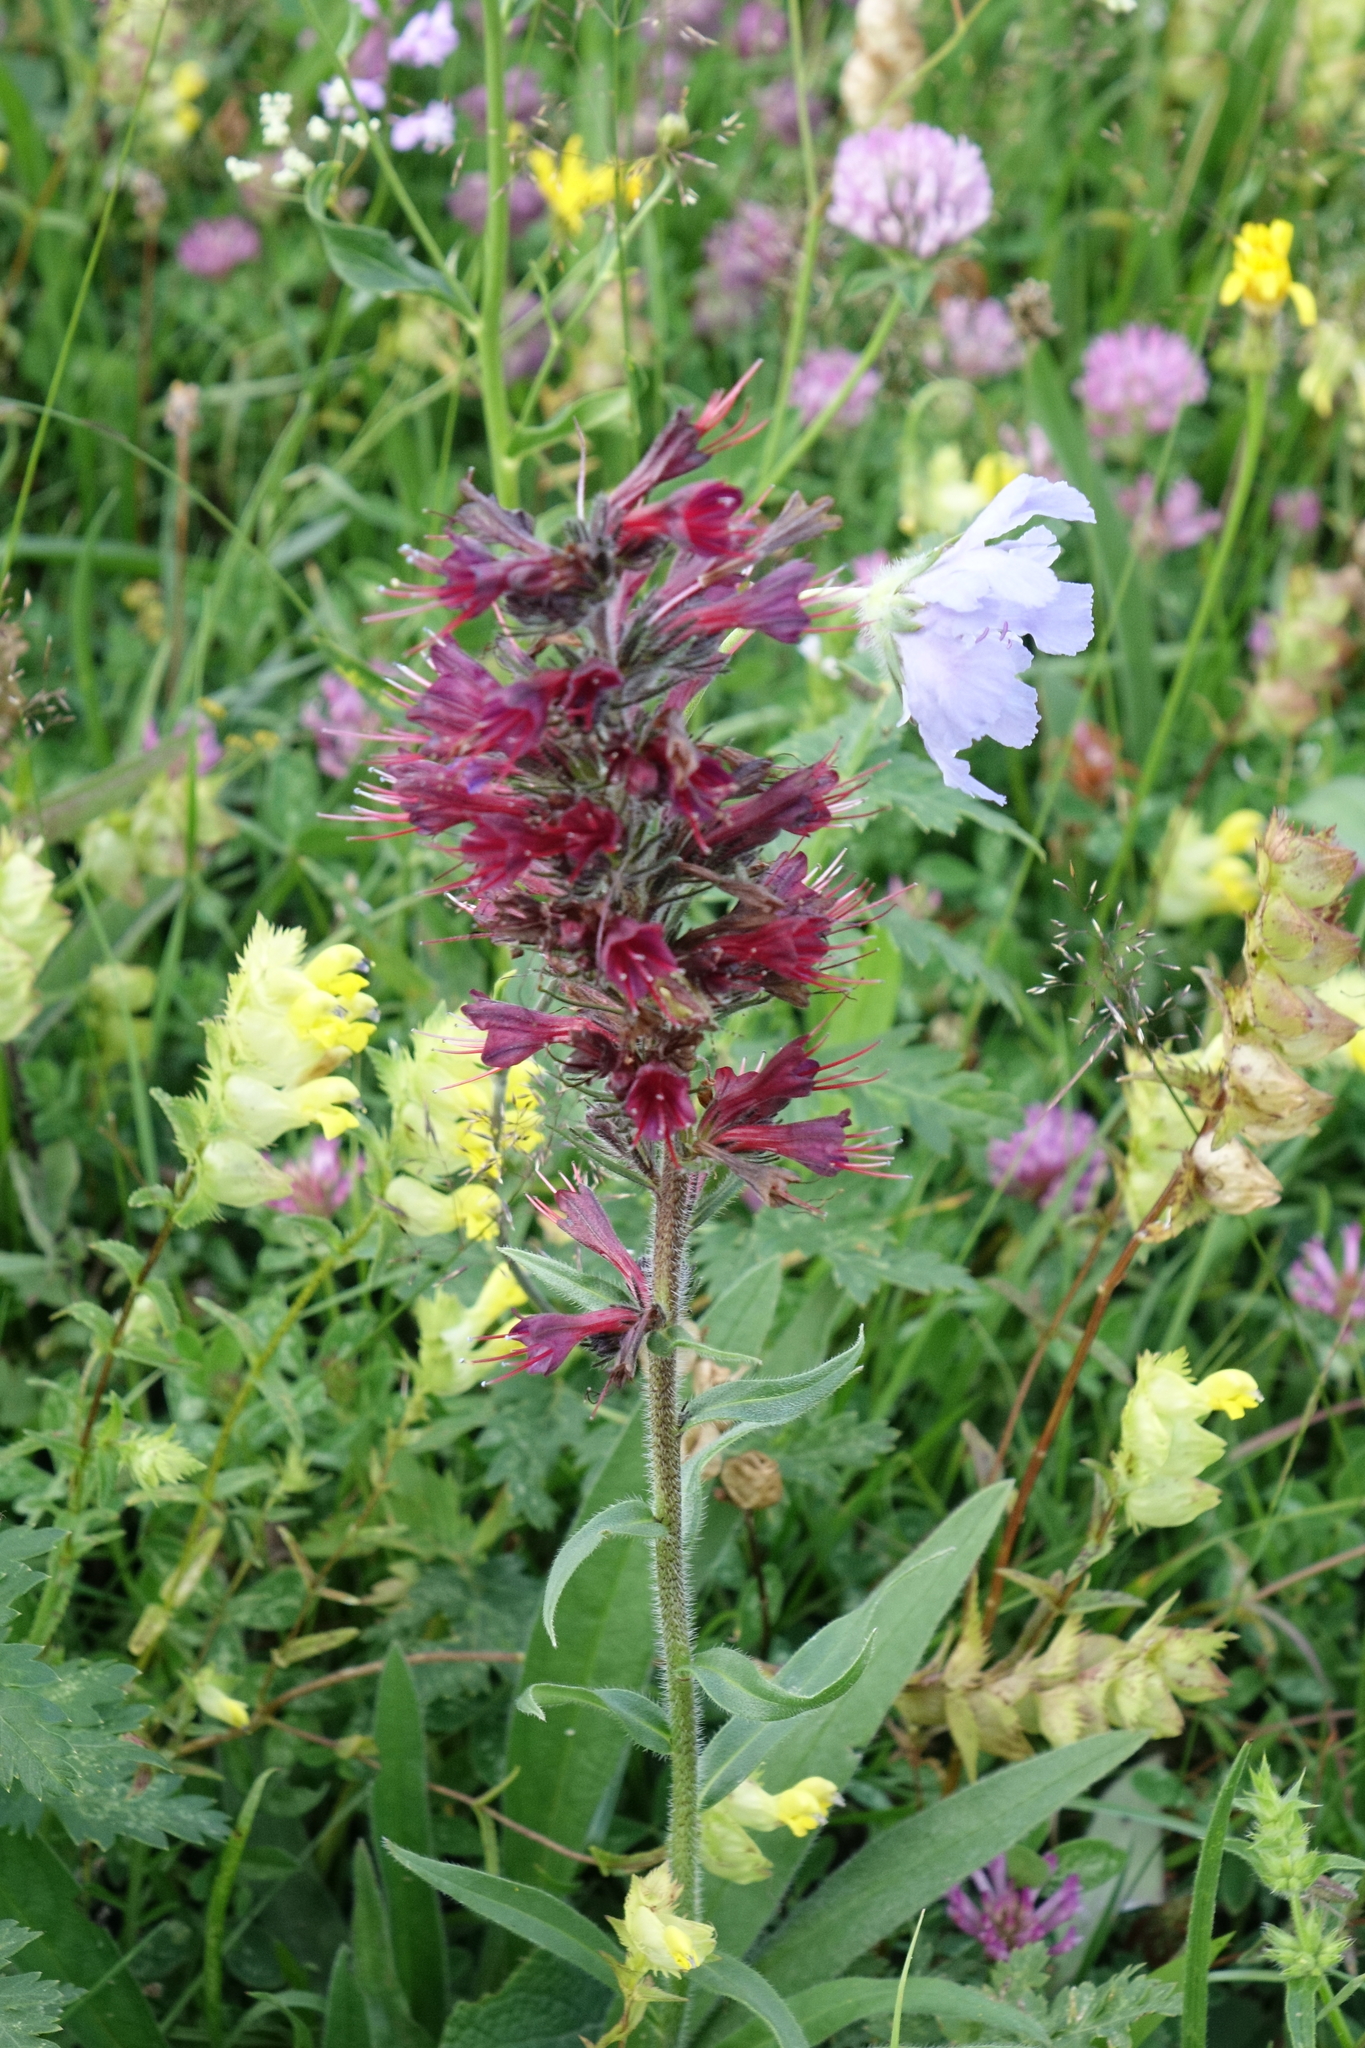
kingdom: Plantae
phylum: Tracheophyta
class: Magnoliopsida
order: Boraginales
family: Boraginaceae
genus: Pontechium
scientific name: Pontechium maculatum
